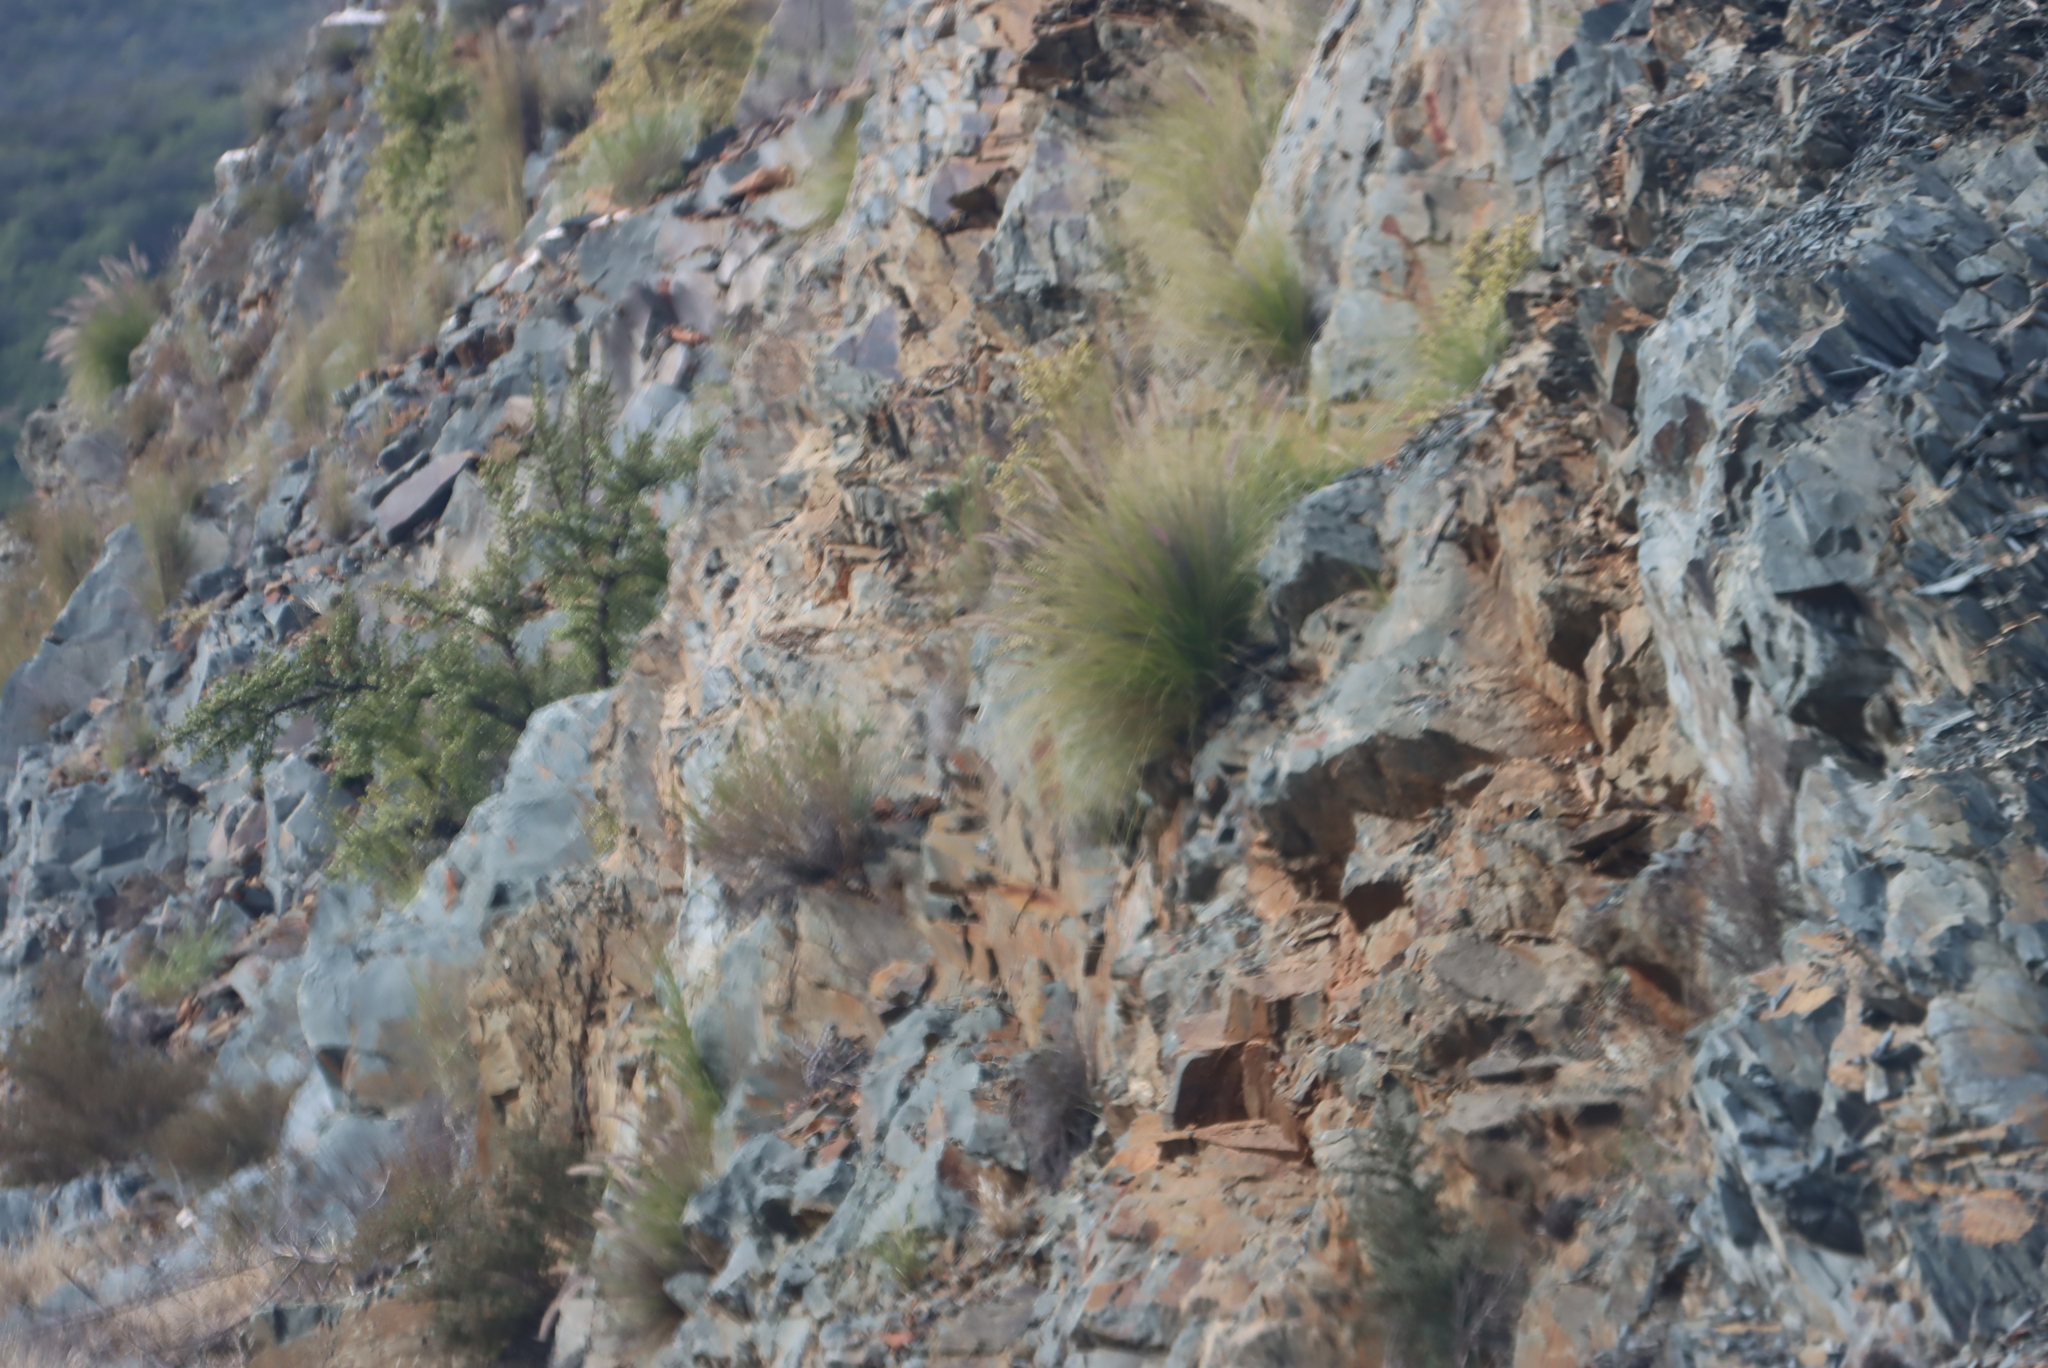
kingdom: Plantae
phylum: Tracheophyta
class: Liliopsida
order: Poales
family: Poaceae
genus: Cenchrus
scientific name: Cenchrus setaceus
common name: Crimson fountaingrass
